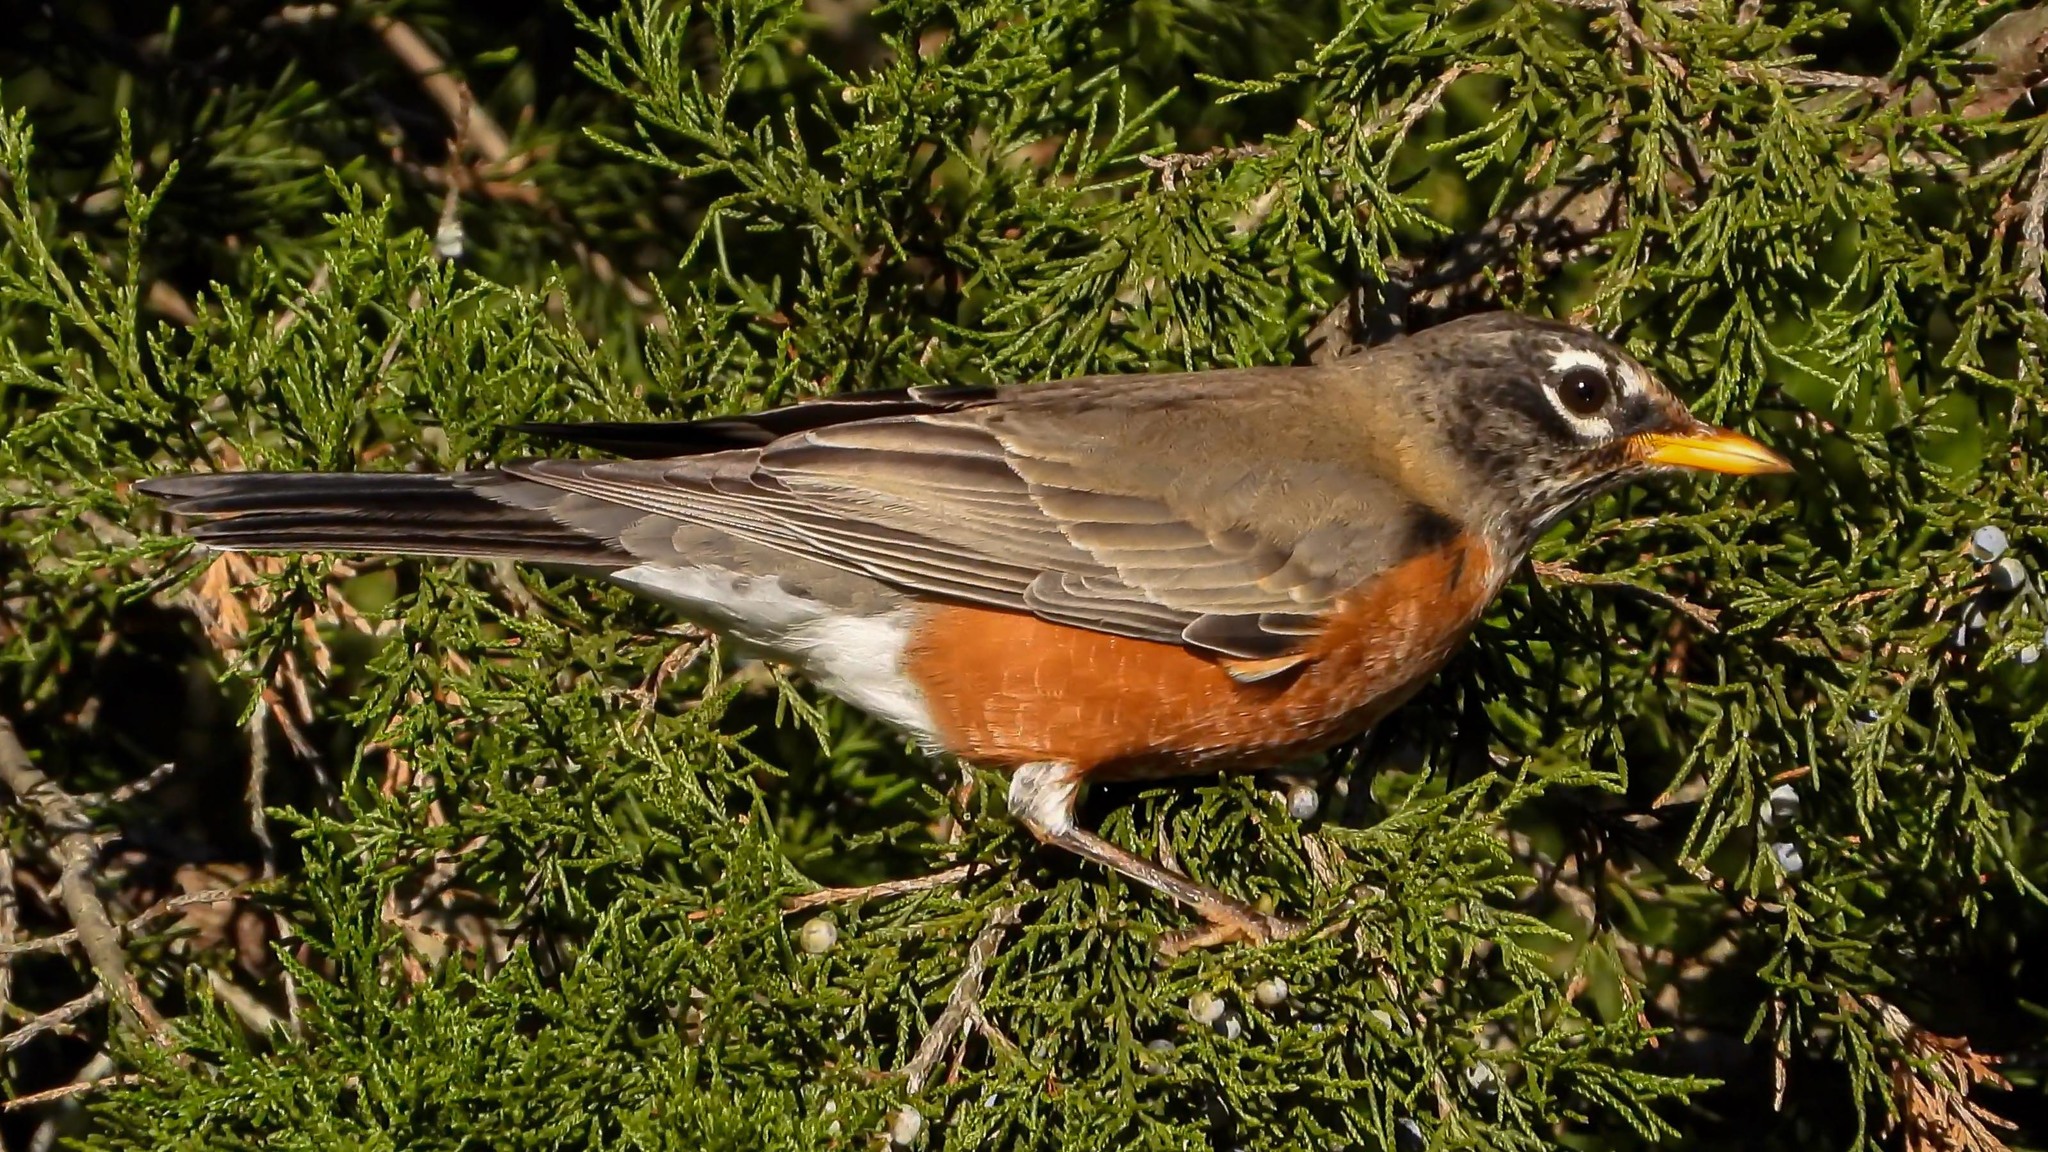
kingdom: Animalia
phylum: Chordata
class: Aves
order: Passeriformes
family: Turdidae
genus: Turdus
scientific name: Turdus migratorius
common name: American robin
